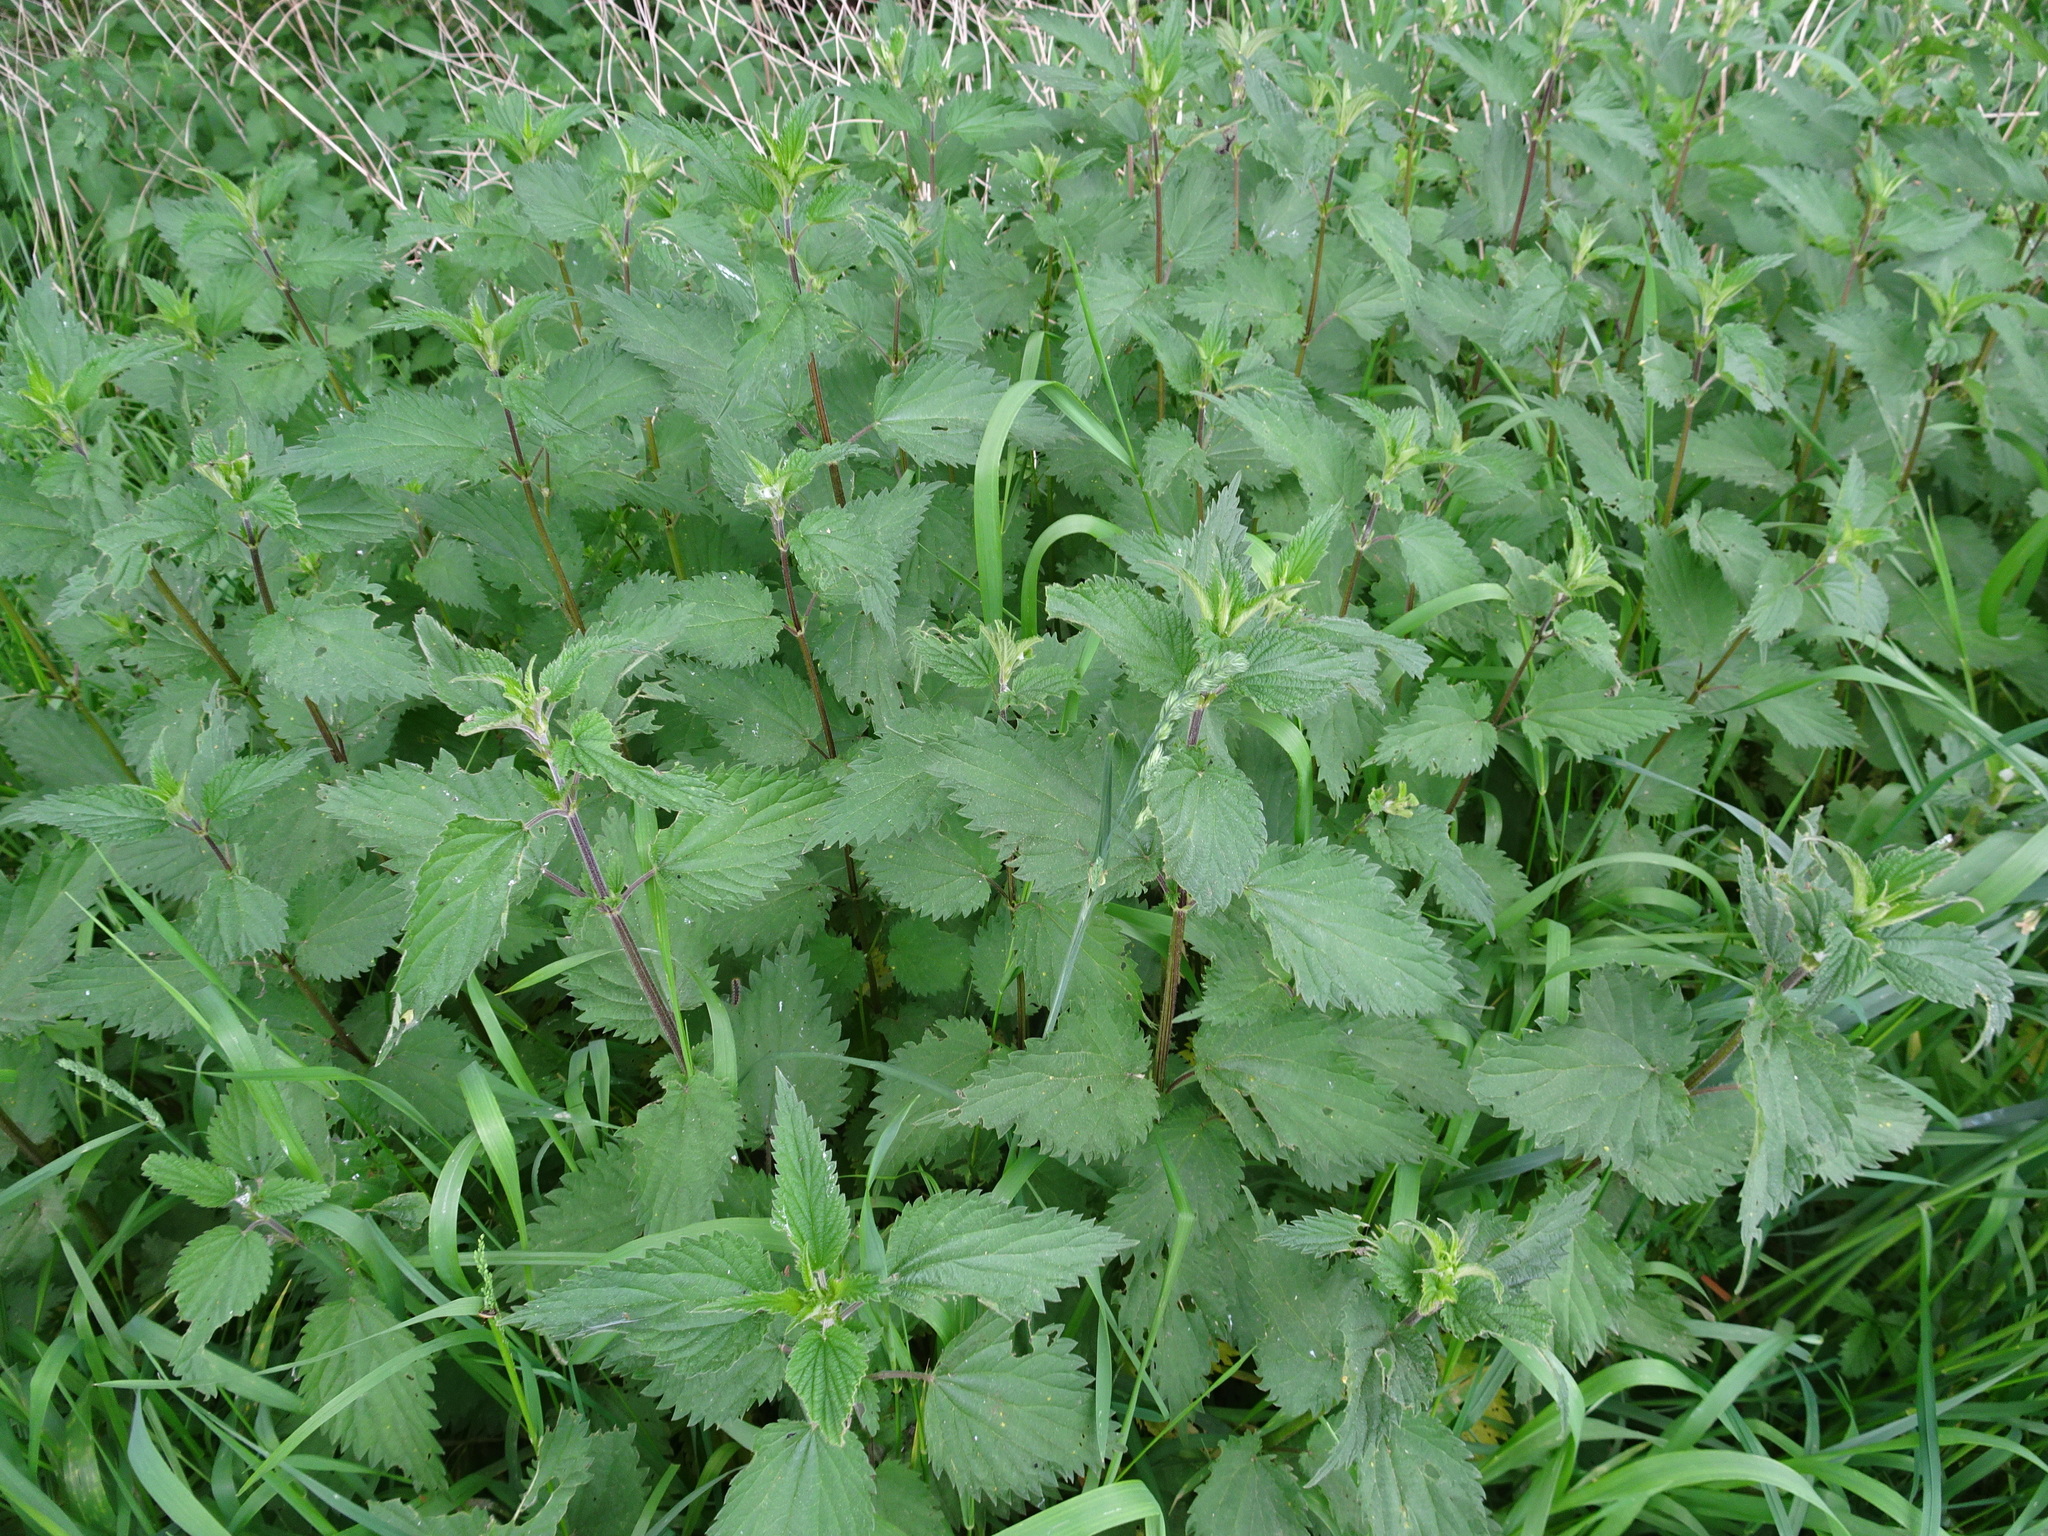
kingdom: Plantae
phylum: Tracheophyta
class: Magnoliopsida
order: Rosales
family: Urticaceae
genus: Urtica
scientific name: Urtica dioica
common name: Common nettle
